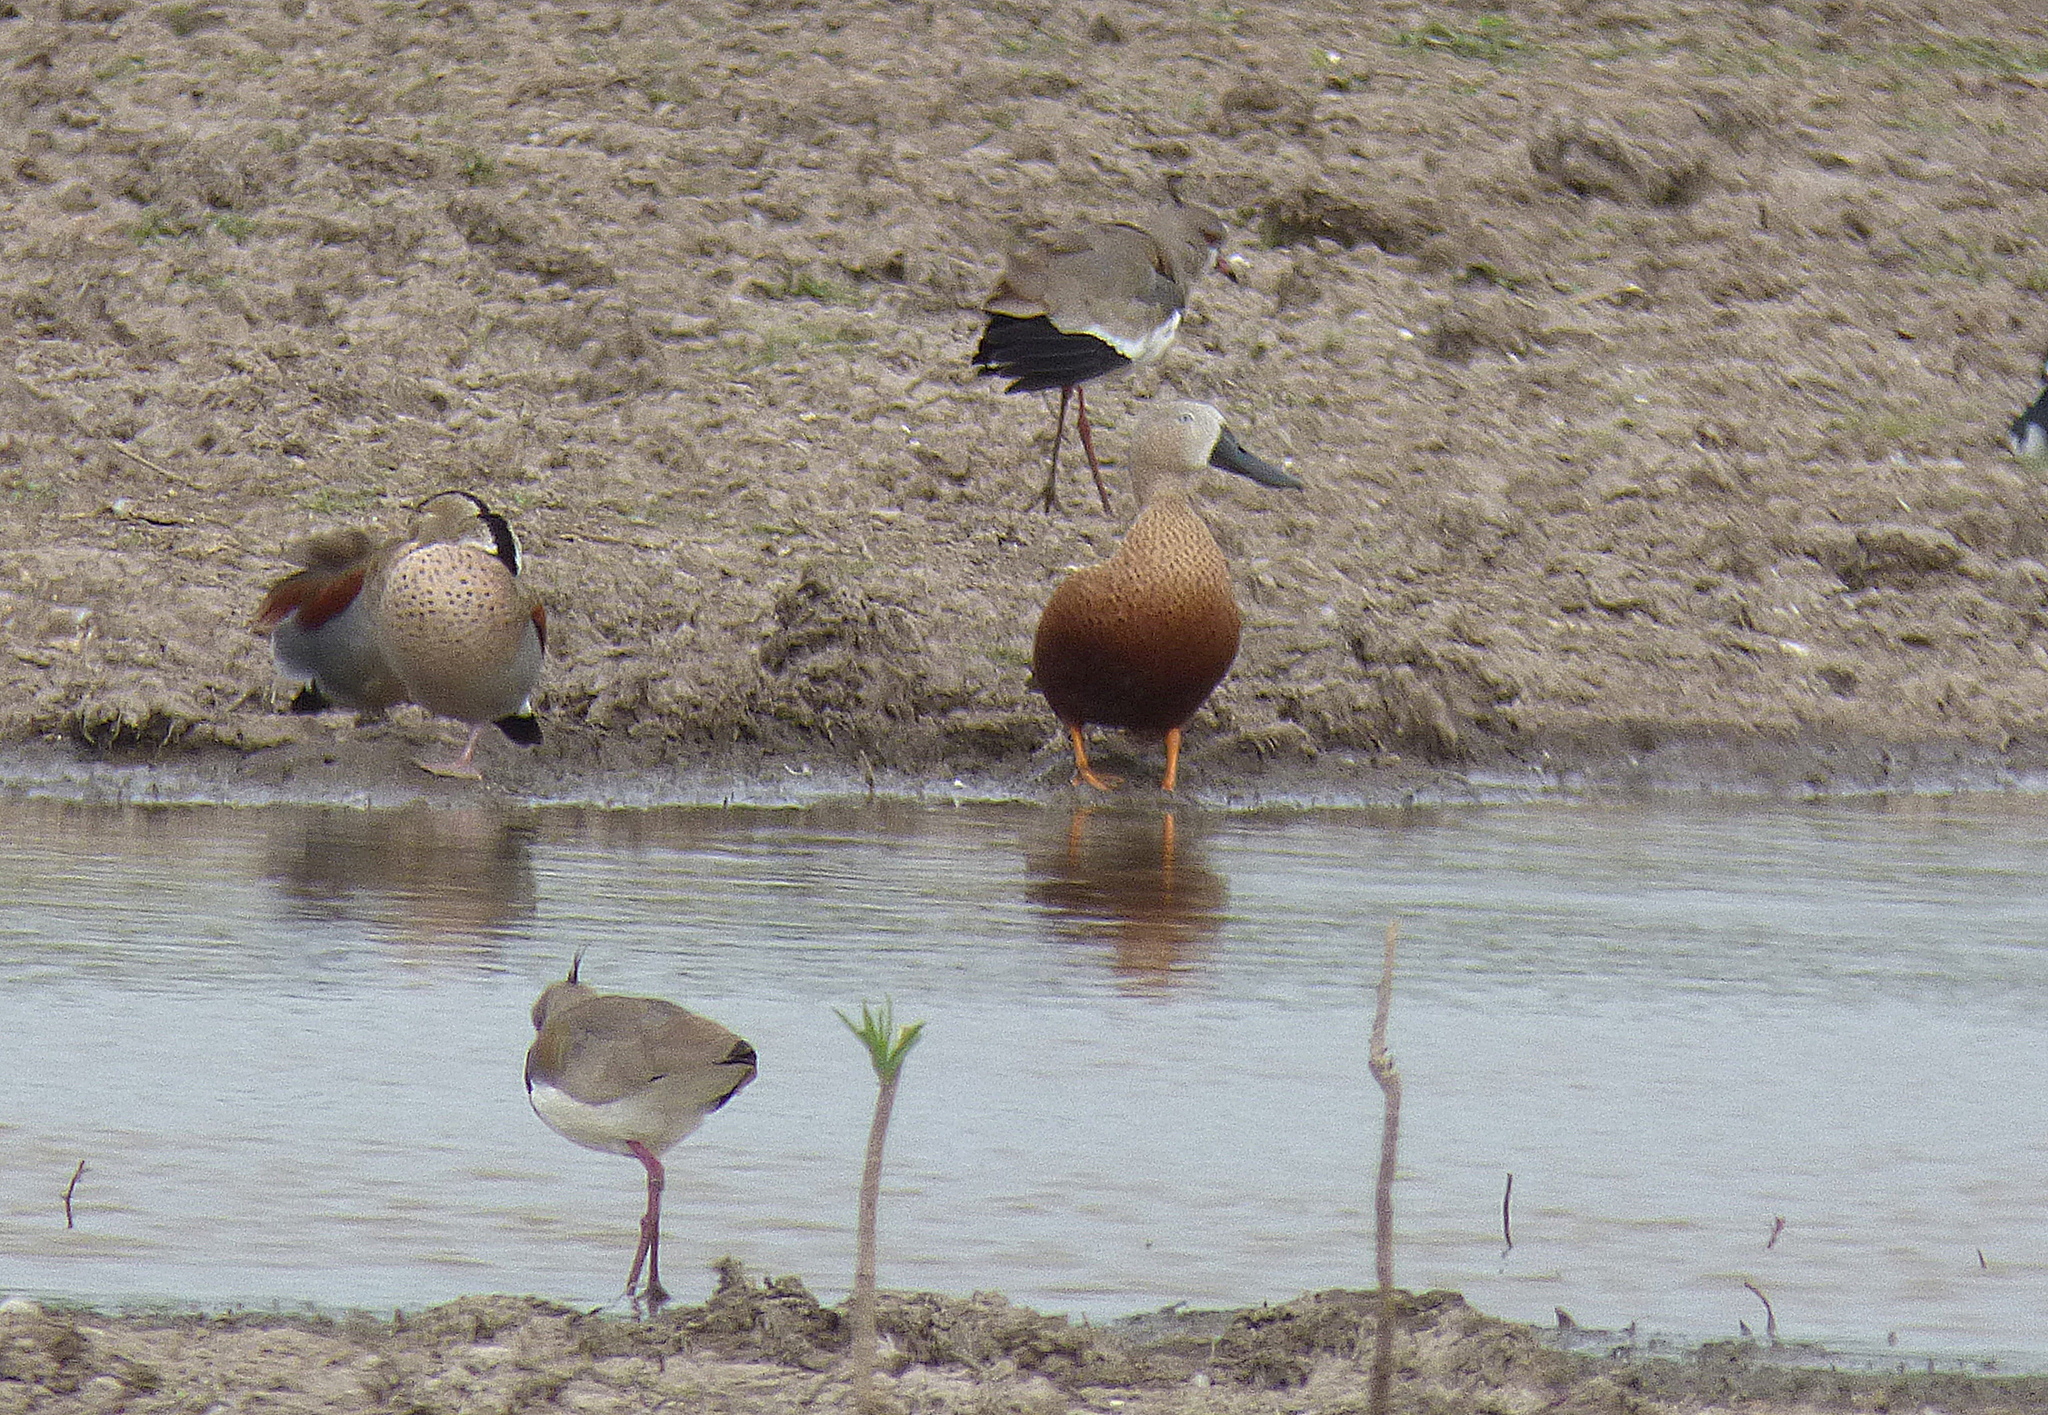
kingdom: Animalia
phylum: Chordata
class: Aves
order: Anseriformes
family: Anatidae
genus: Spatula
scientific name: Spatula platalea
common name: Red shoveler
